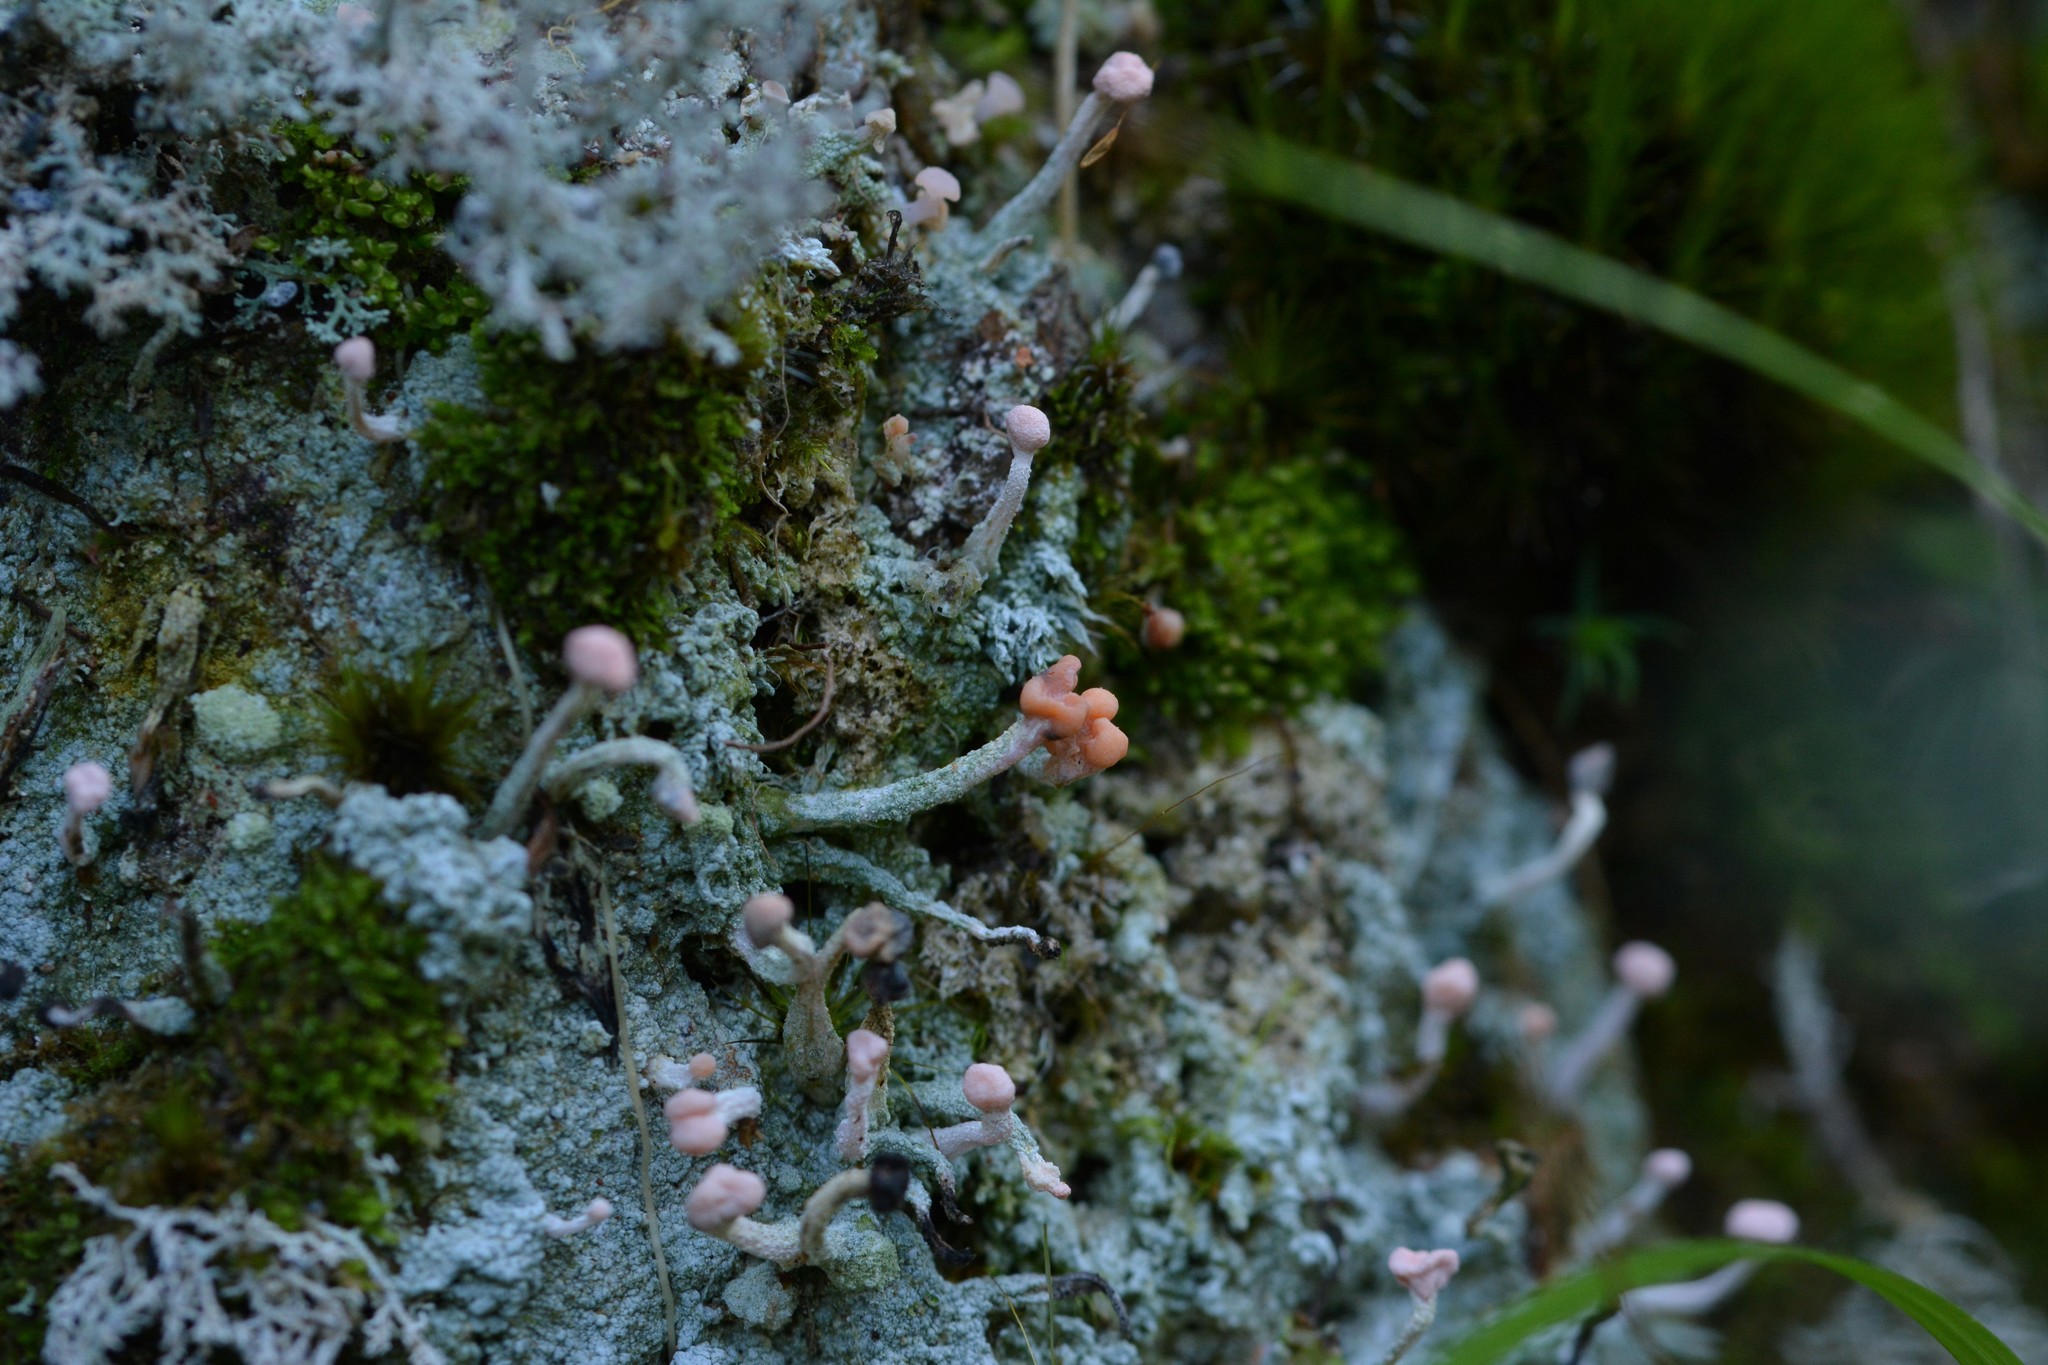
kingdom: Fungi
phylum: Ascomycota
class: Lecanoromycetes
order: Pertusariales
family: Icmadophilaceae
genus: Dibaeis
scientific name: Dibaeis arcuata
